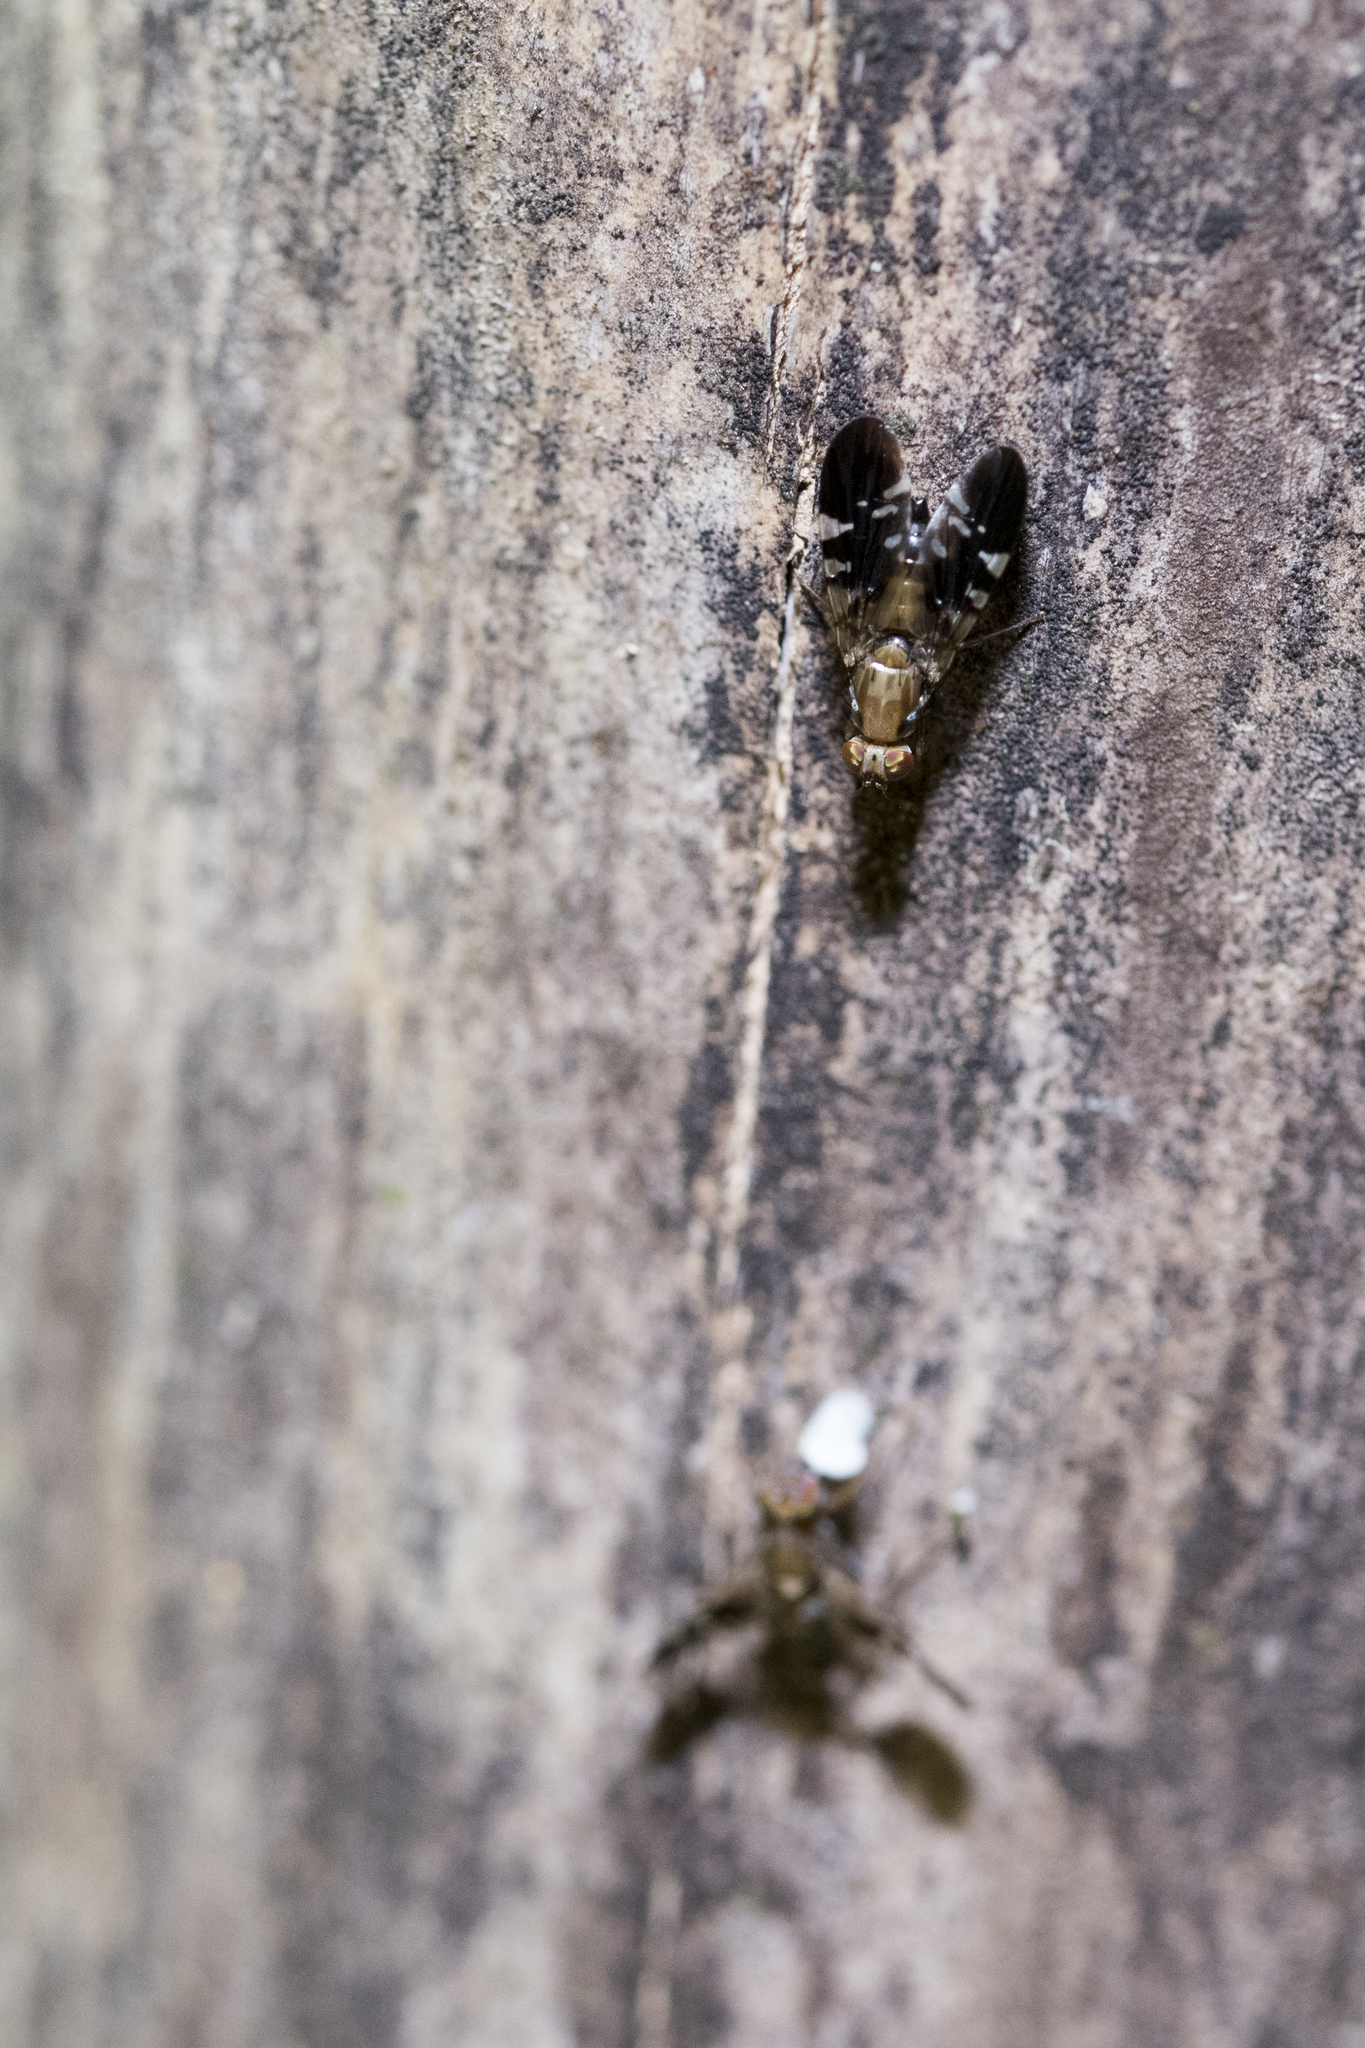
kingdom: Animalia
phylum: Arthropoda
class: Insecta
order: Diptera
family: Tephritidae
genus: Ptilona
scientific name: Ptilona confinis
